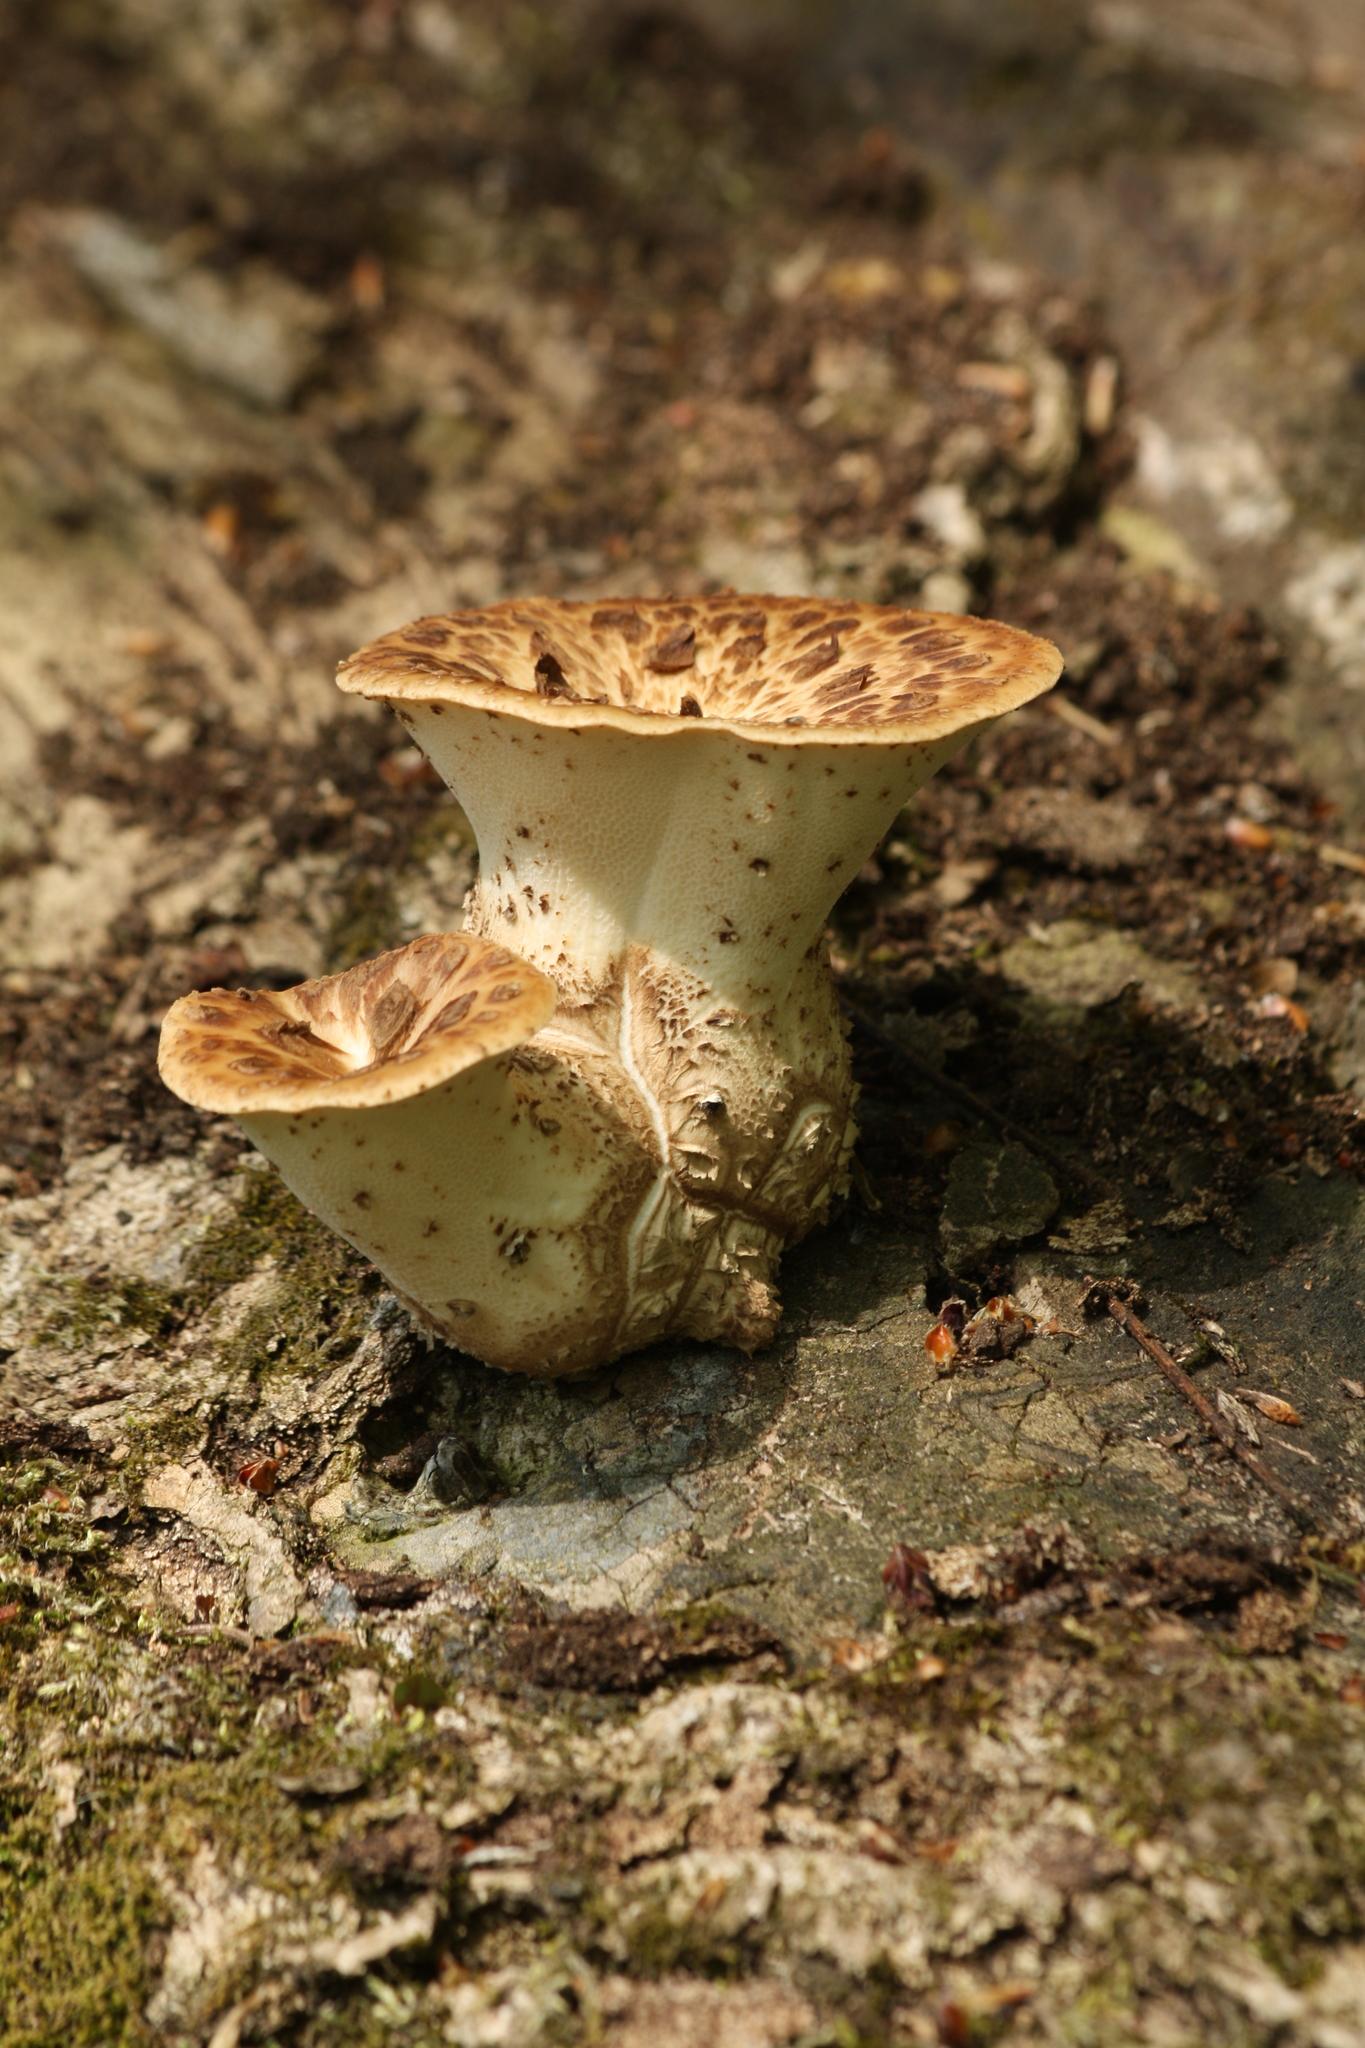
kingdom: Fungi
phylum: Basidiomycota
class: Agaricomycetes
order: Polyporales
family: Polyporaceae
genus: Cerioporus
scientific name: Cerioporus squamosus
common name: Dryad's saddle
